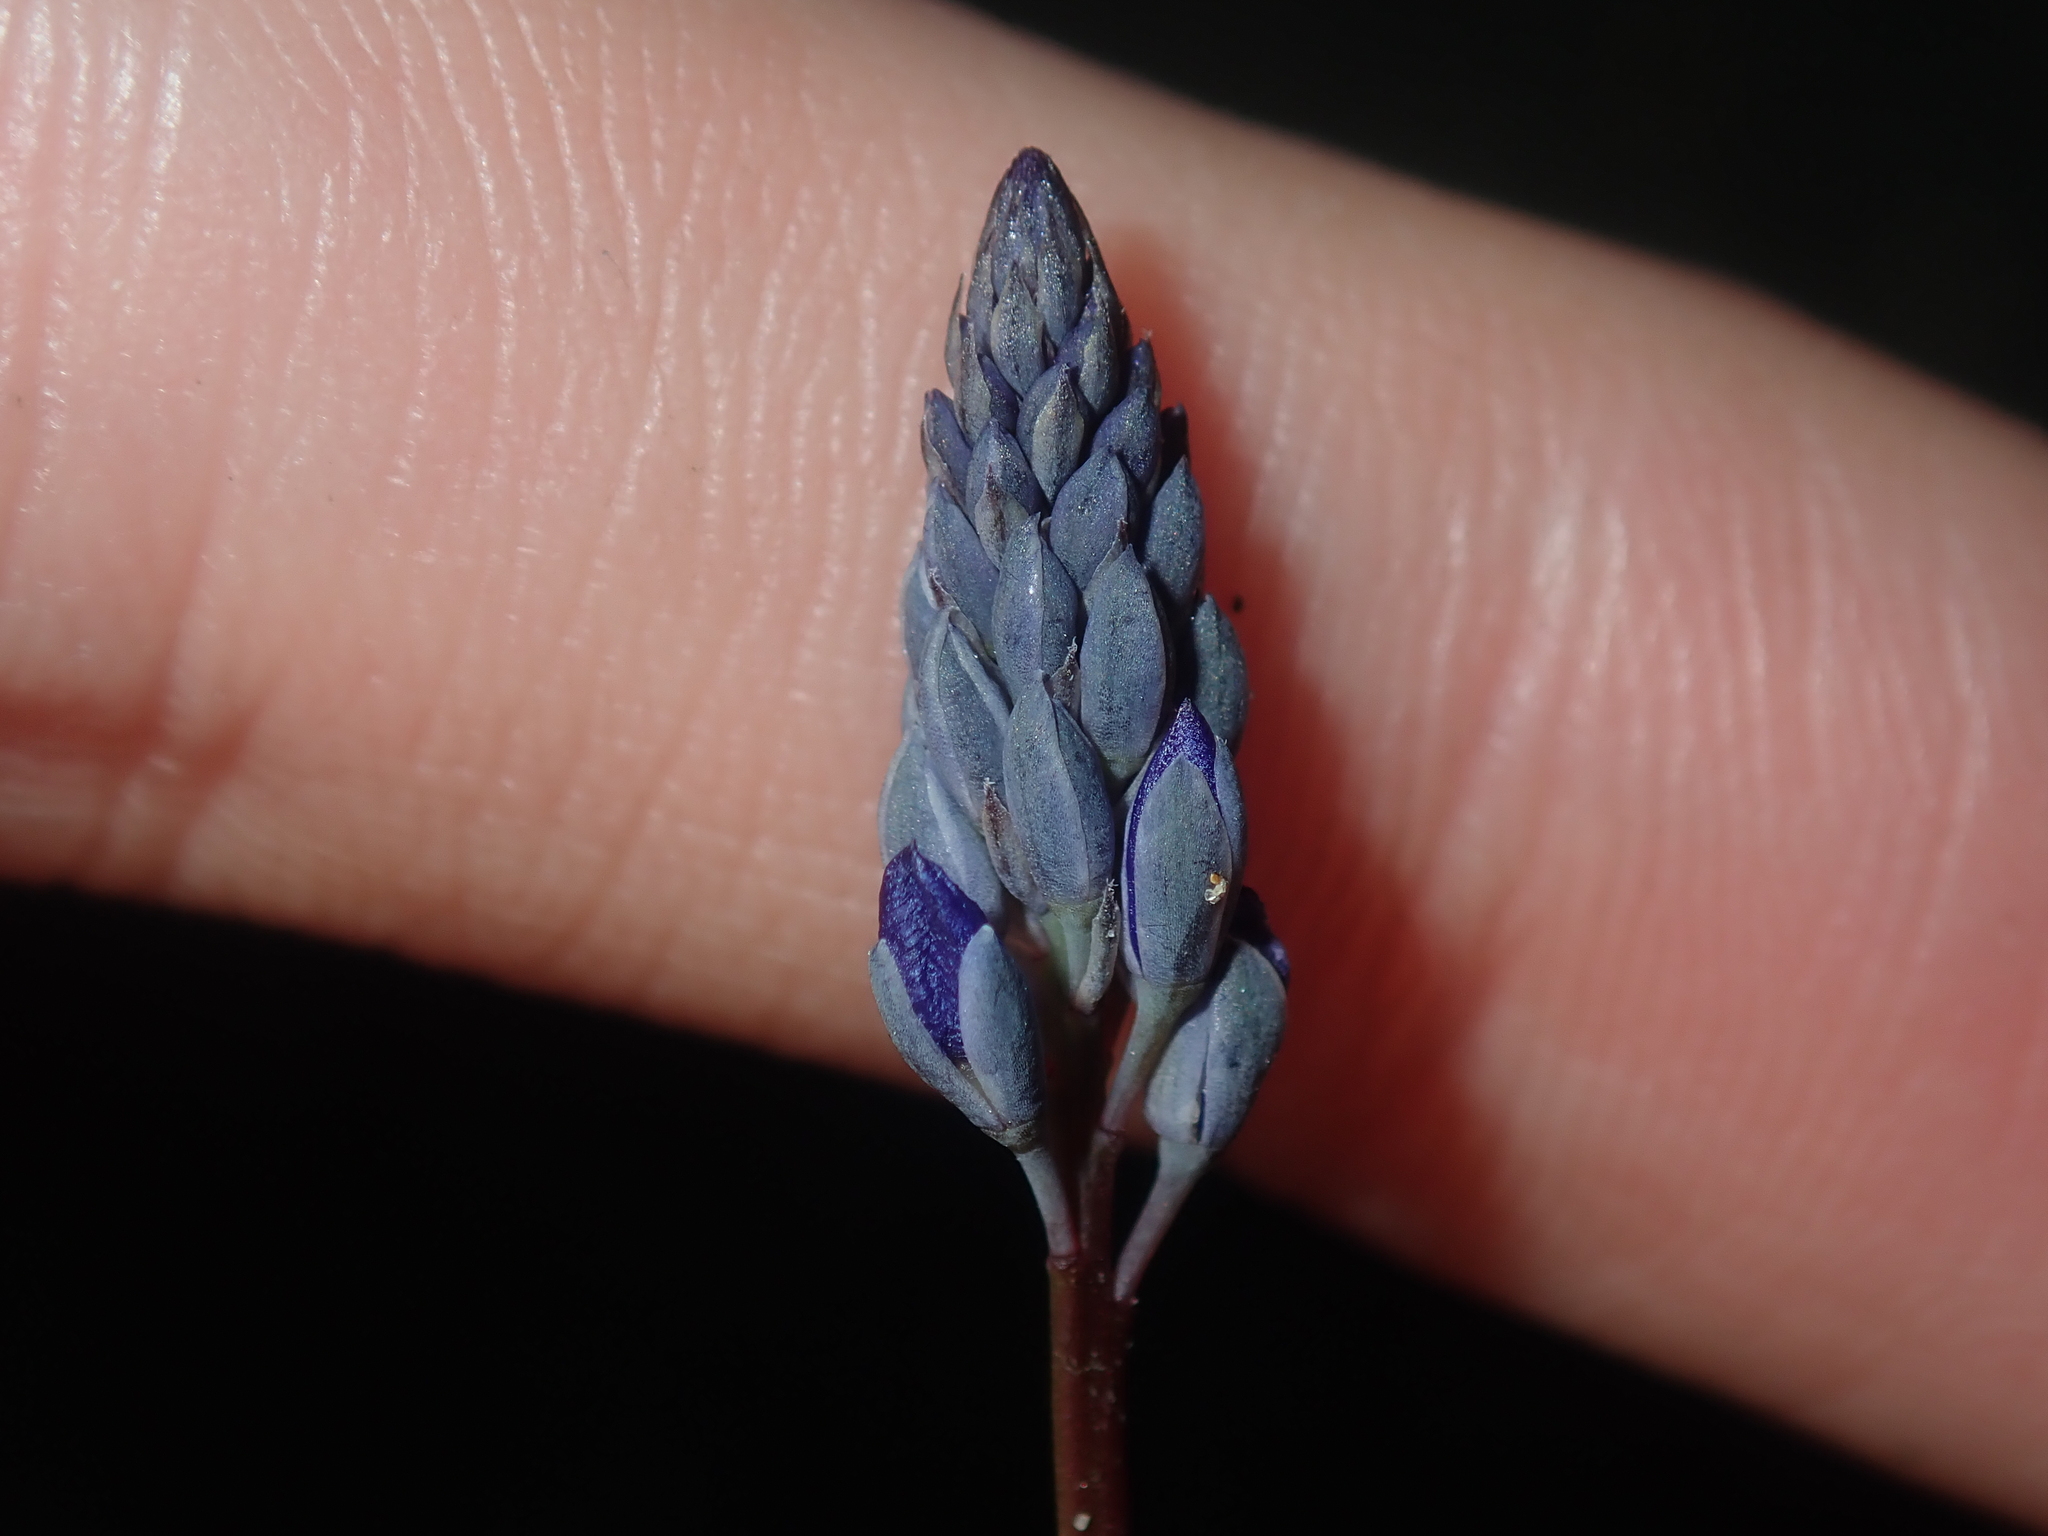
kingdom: Plantae
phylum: Tracheophyta
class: Magnoliopsida
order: Fabales
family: Polygalaceae
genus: Comesperma
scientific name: Comesperma calymega
